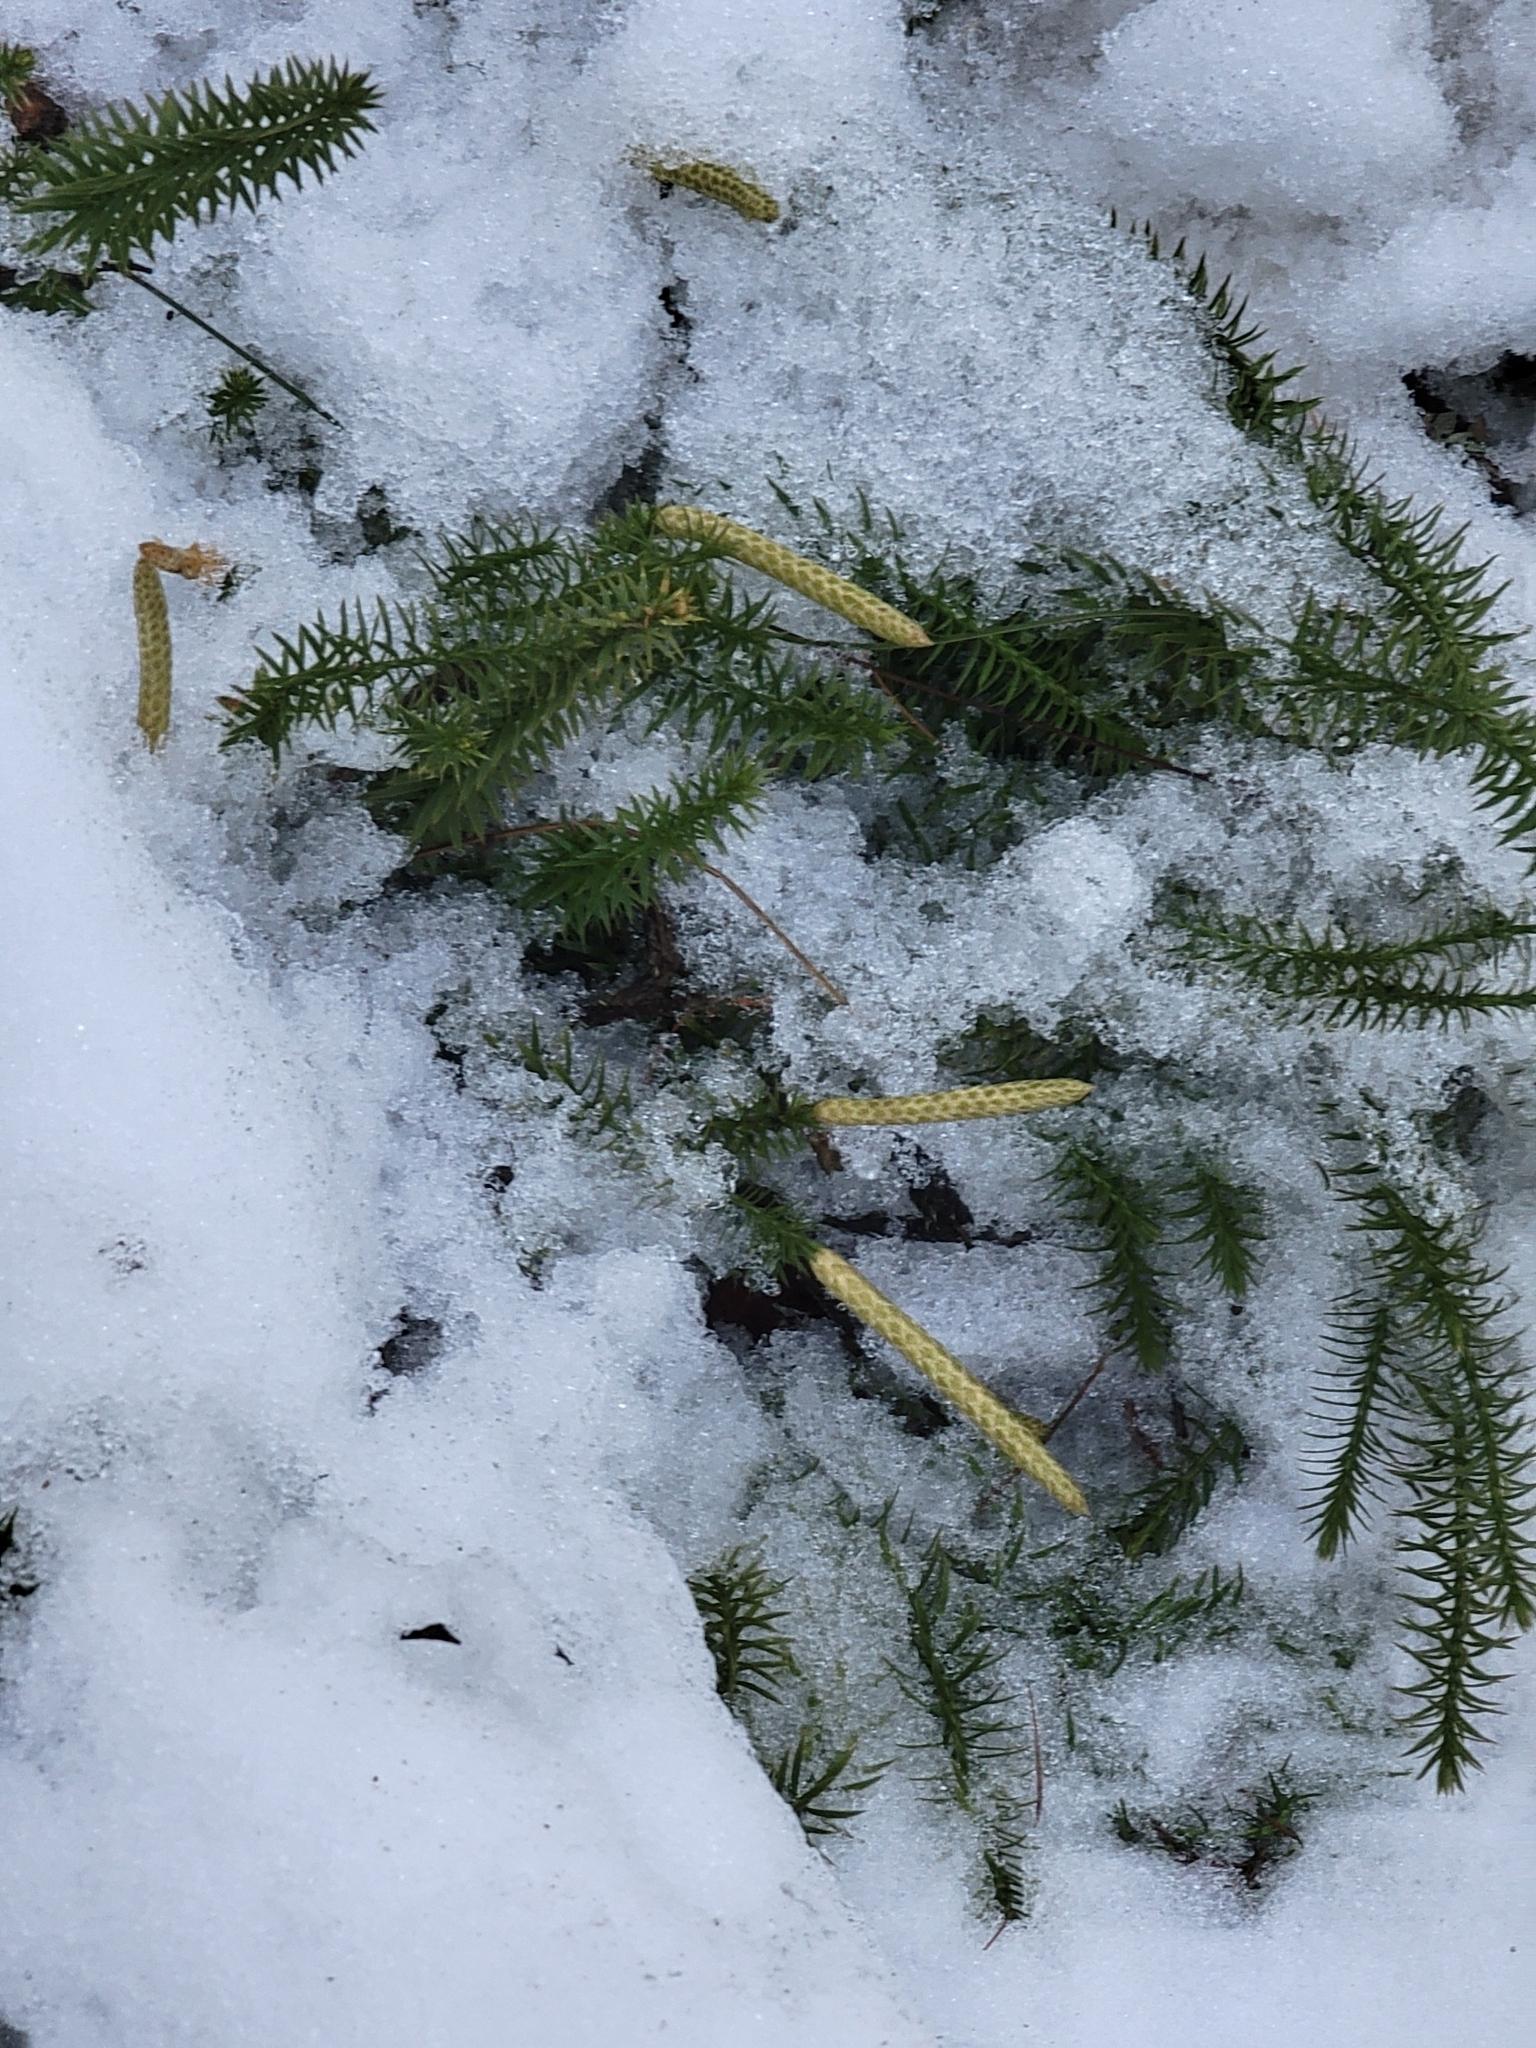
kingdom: Plantae
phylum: Tracheophyta
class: Lycopodiopsida
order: Lycopodiales
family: Lycopodiaceae
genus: Spinulum
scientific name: Spinulum annotinum
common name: Interrupted club-moss
